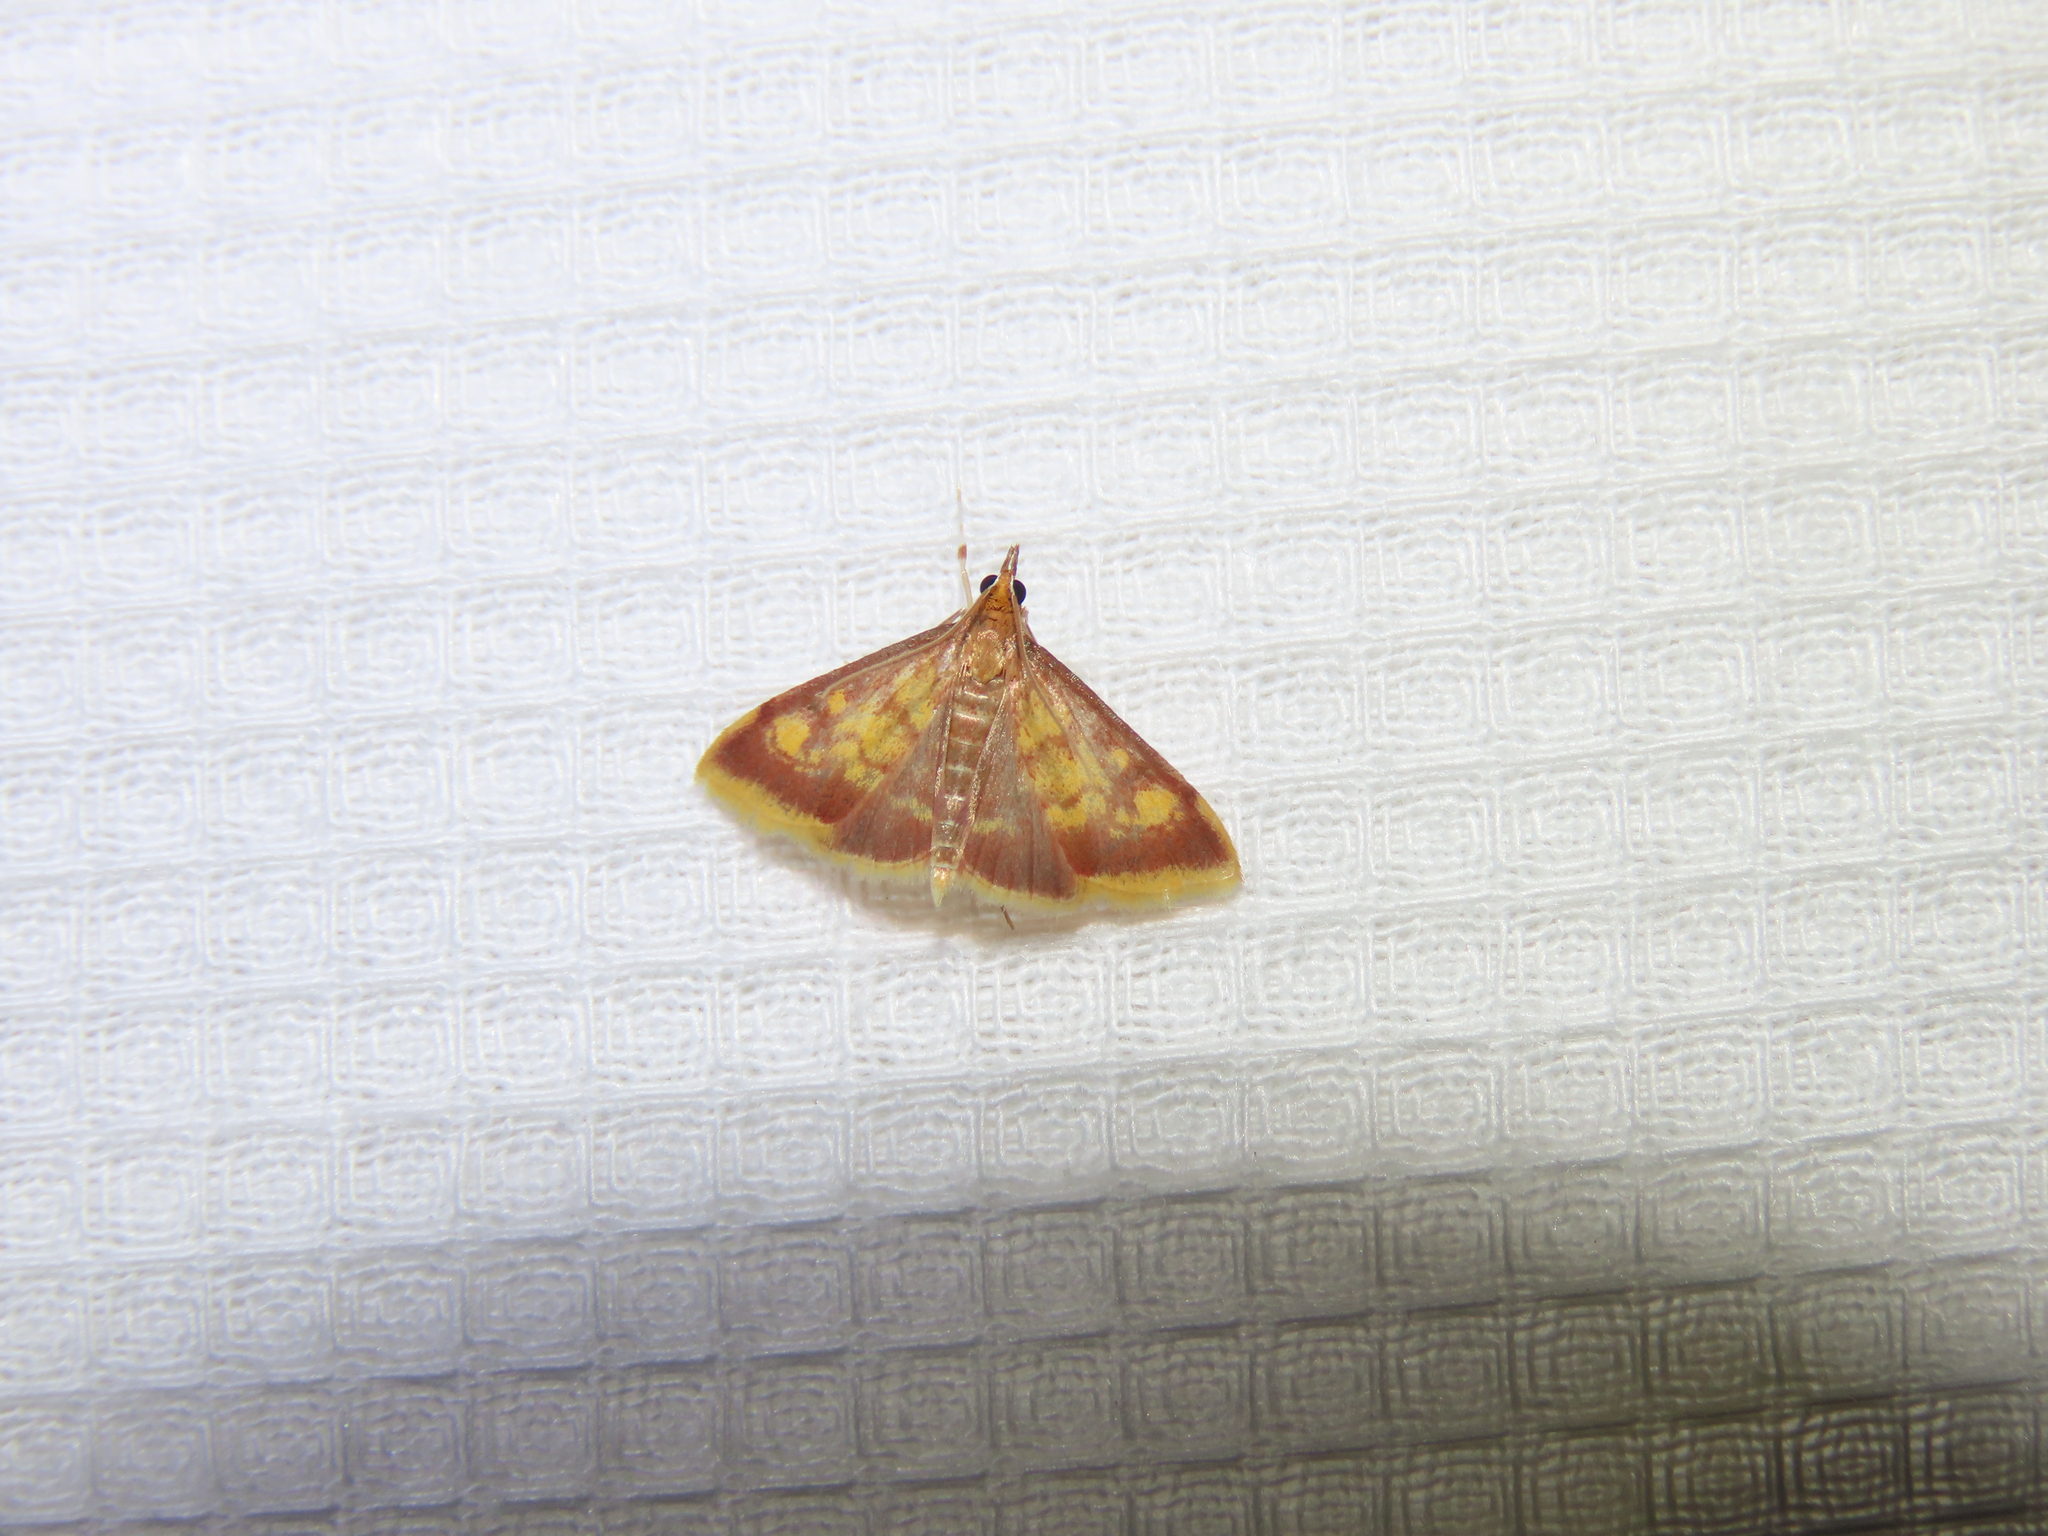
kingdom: Animalia
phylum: Arthropoda
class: Insecta
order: Lepidoptera
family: Crambidae
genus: Pyrausta
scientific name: Pyrausta acrionalis
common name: Mint-loving pyrausta moth
